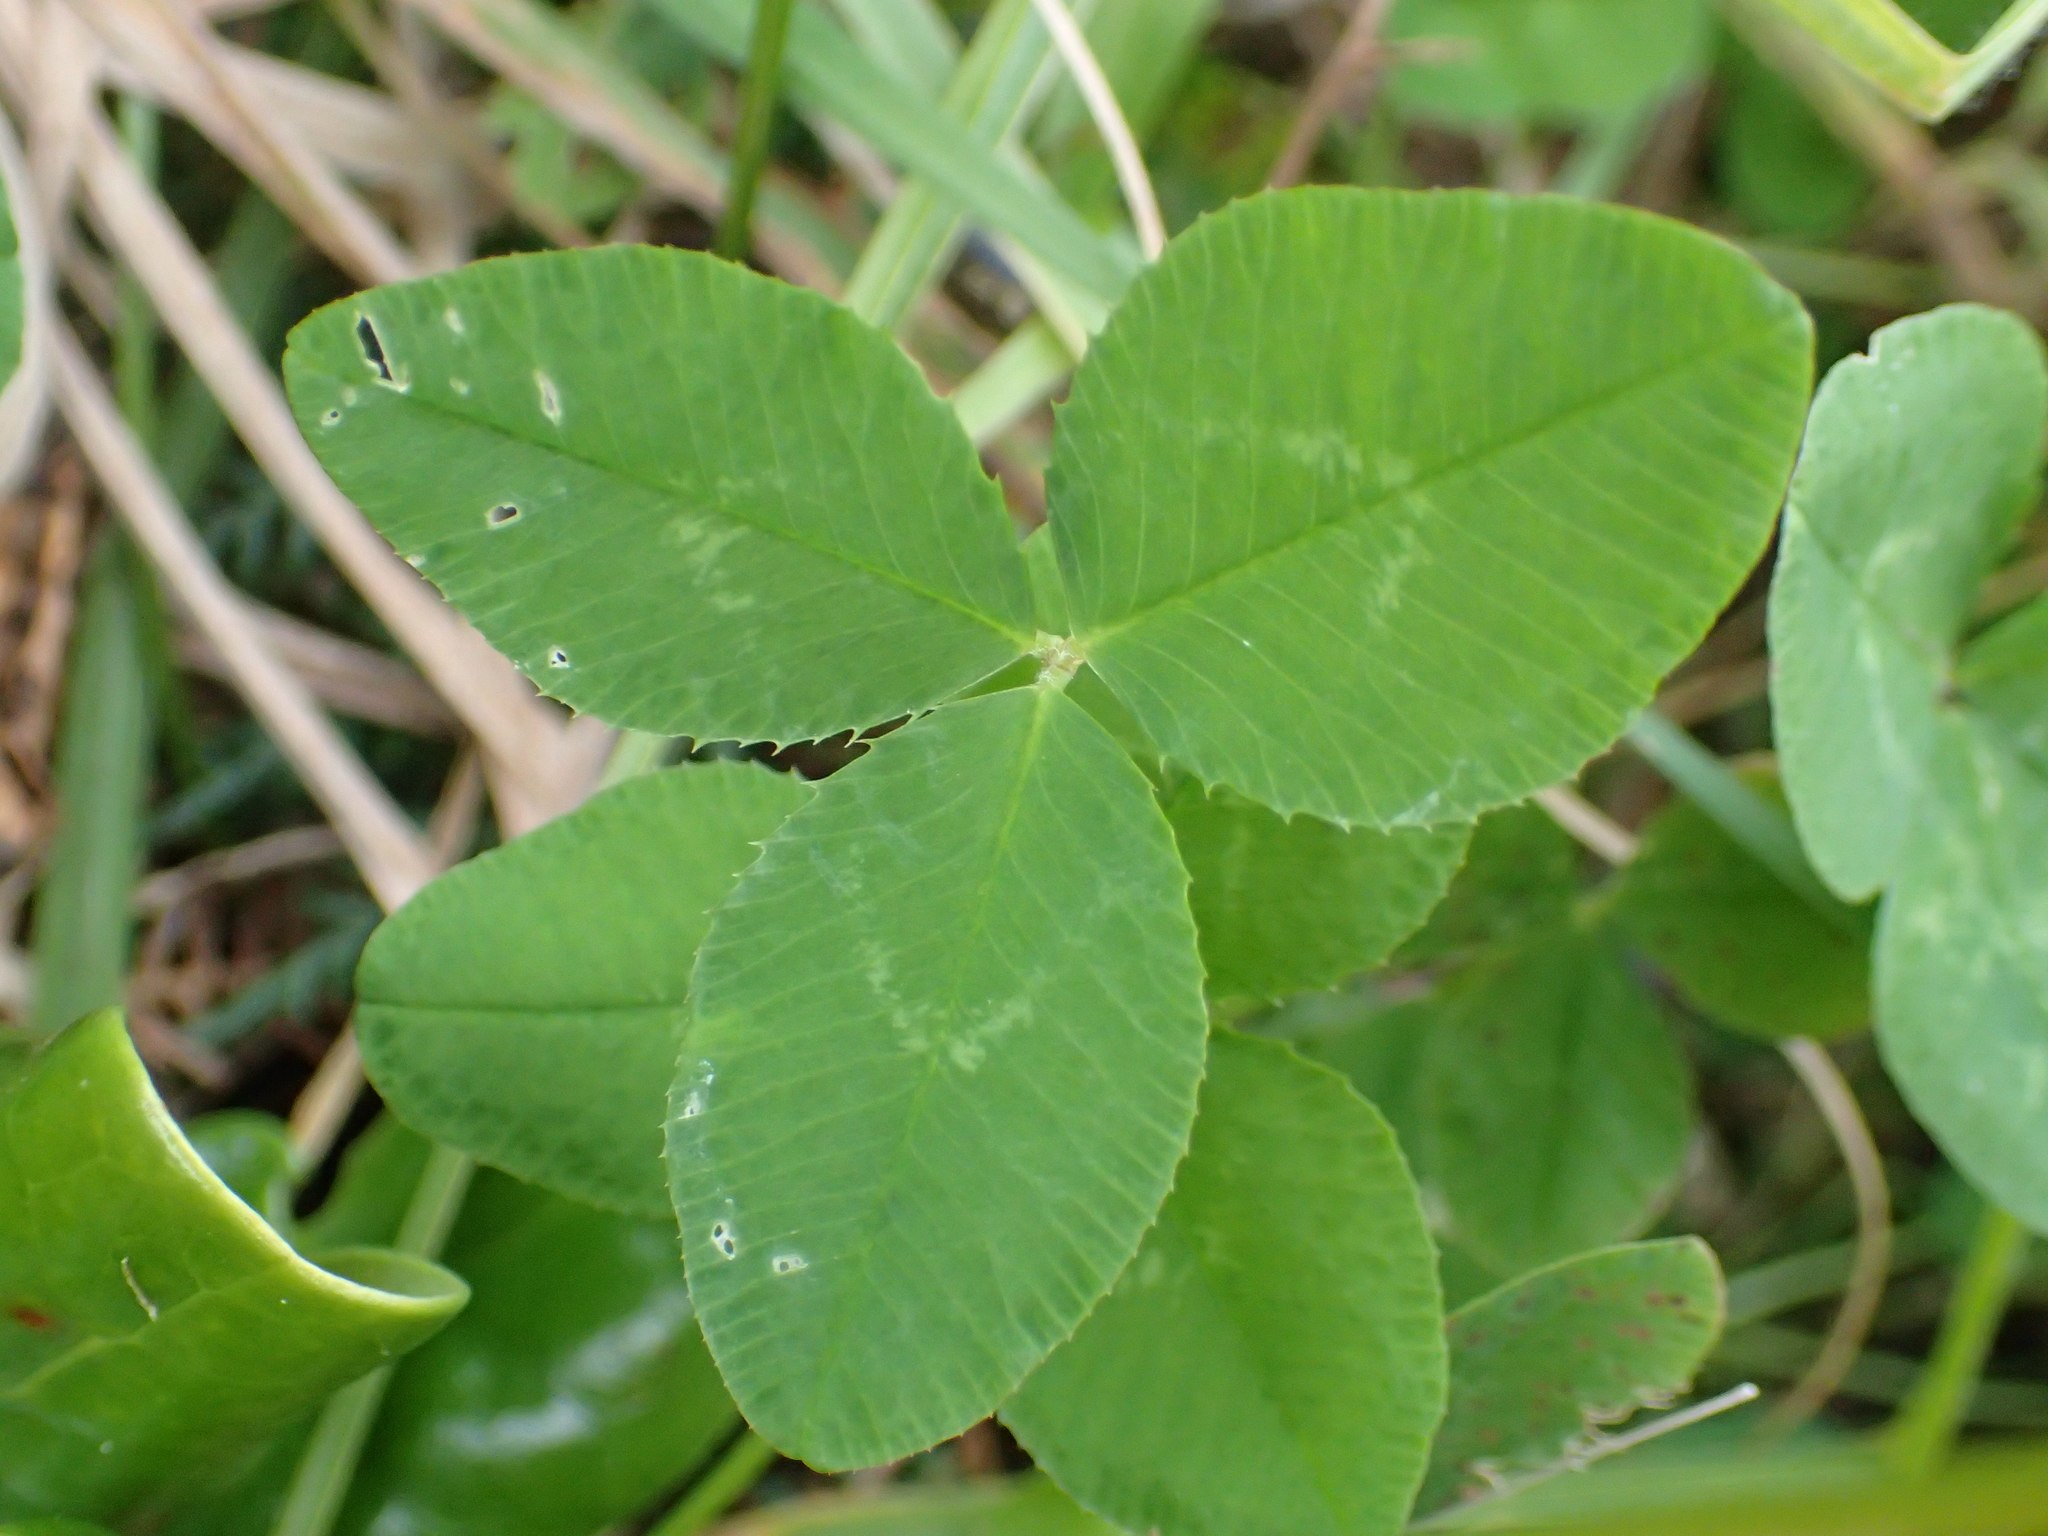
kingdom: Plantae
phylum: Tracheophyta
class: Magnoliopsida
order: Fabales
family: Fabaceae
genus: Trifolium
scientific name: Trifolium repens
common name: White clover
